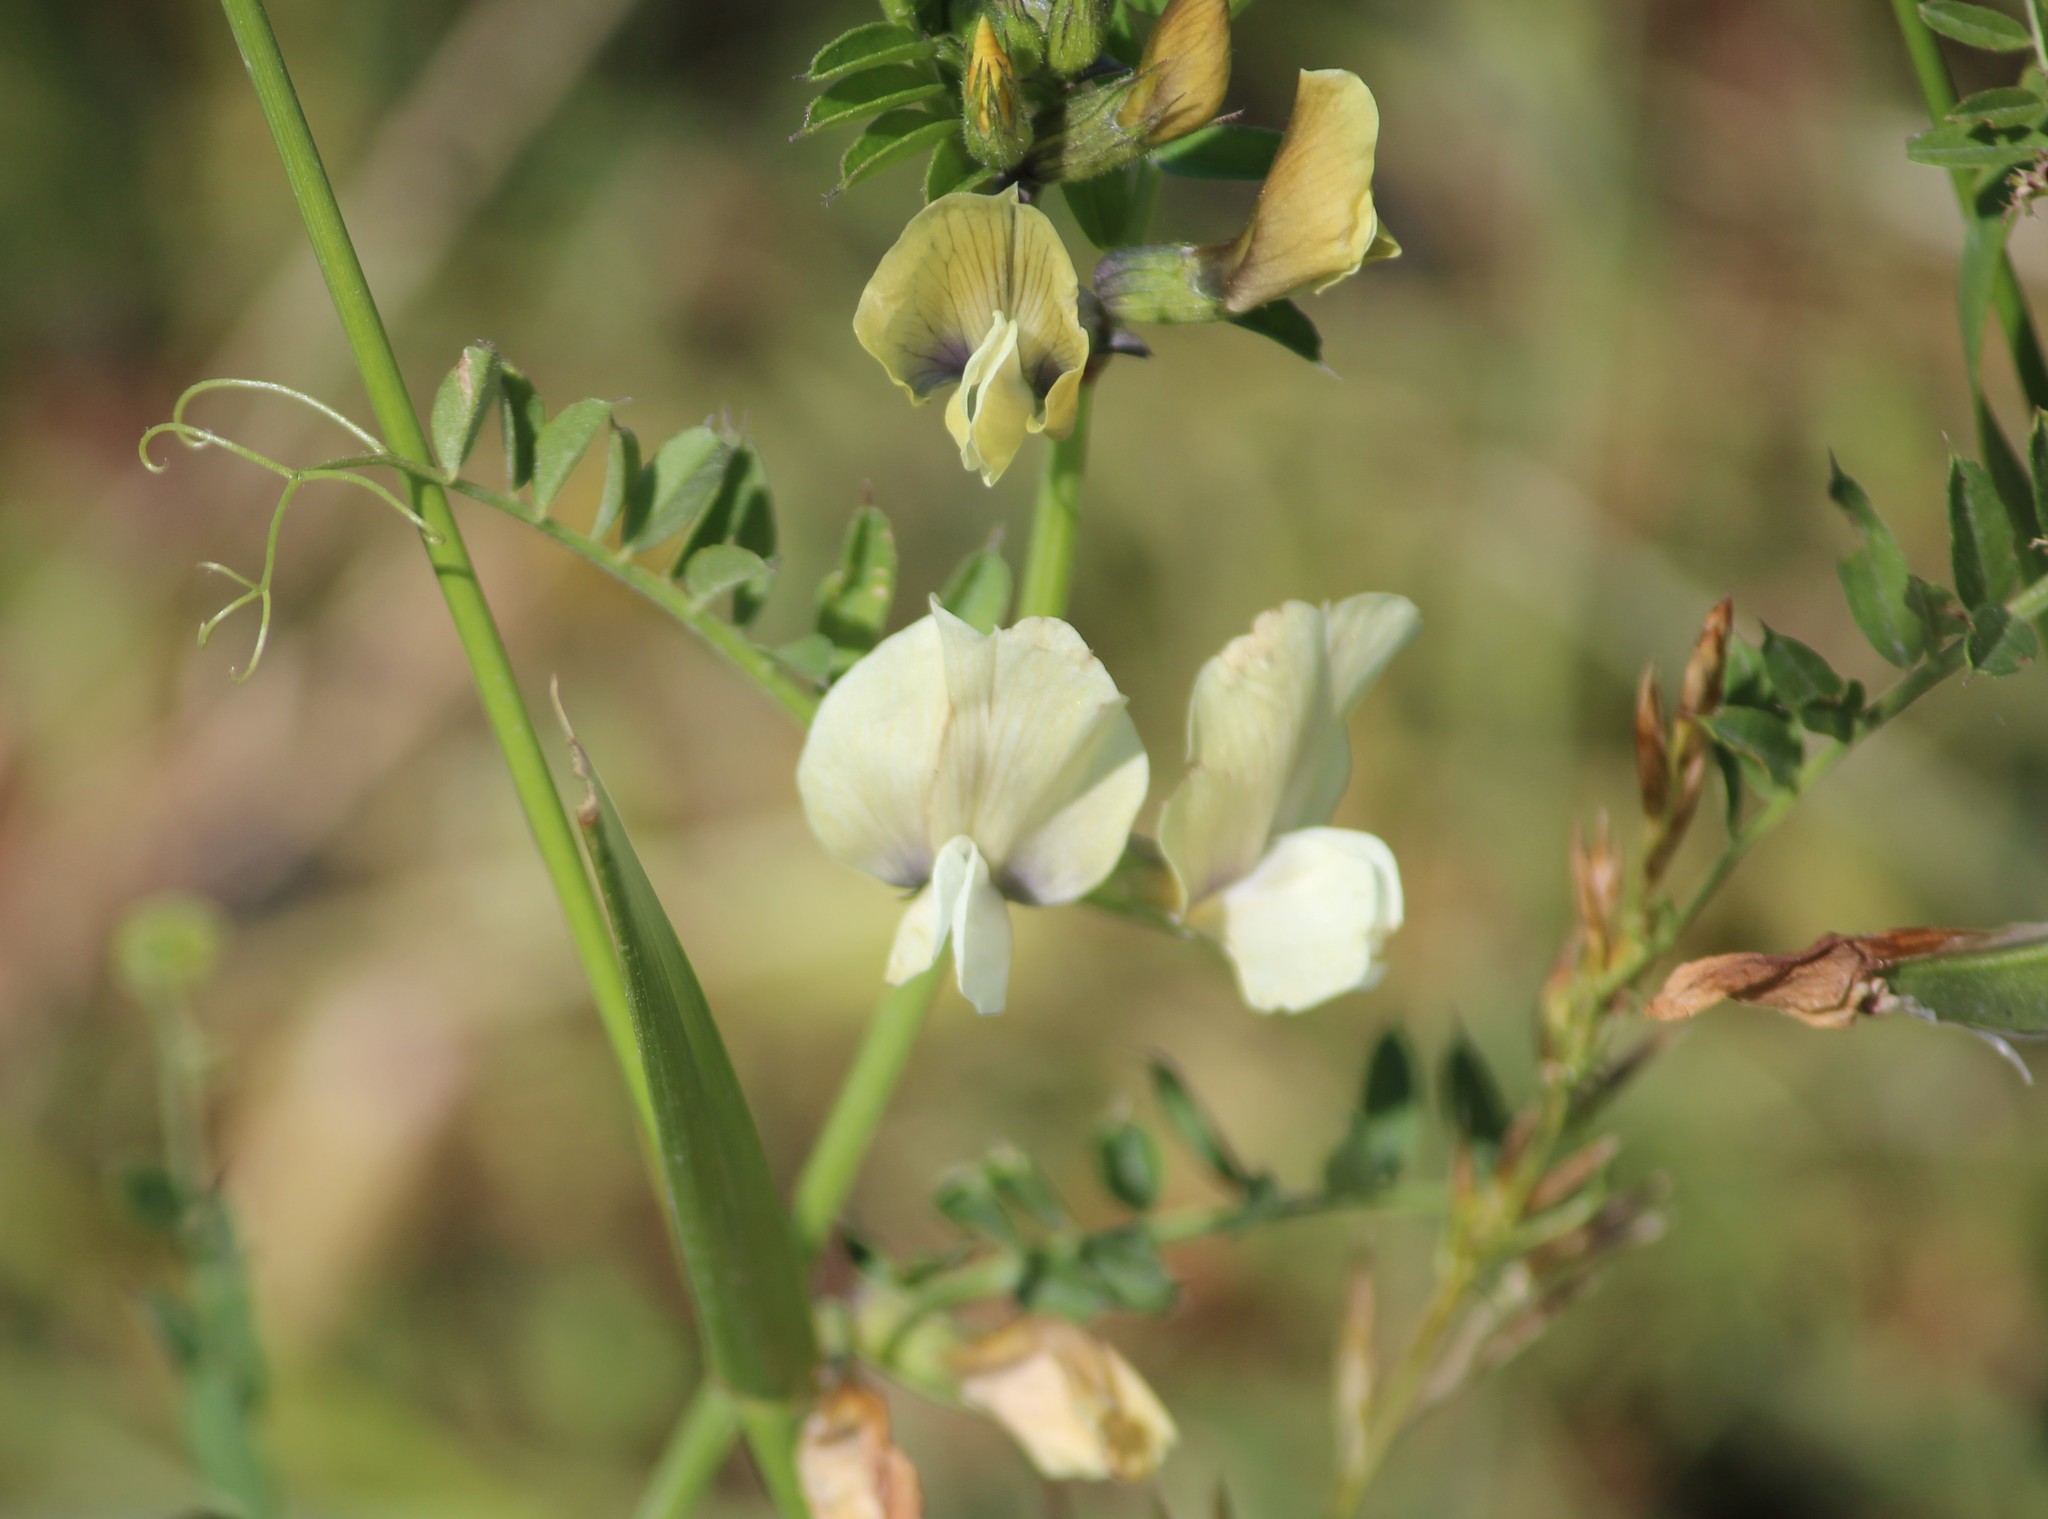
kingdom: Plantae
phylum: Tracheophyta
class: Magnoliopsida
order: Fabales
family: Fabaceae
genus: Vicia
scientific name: Vicia grandiflora
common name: Large yellow vetch
